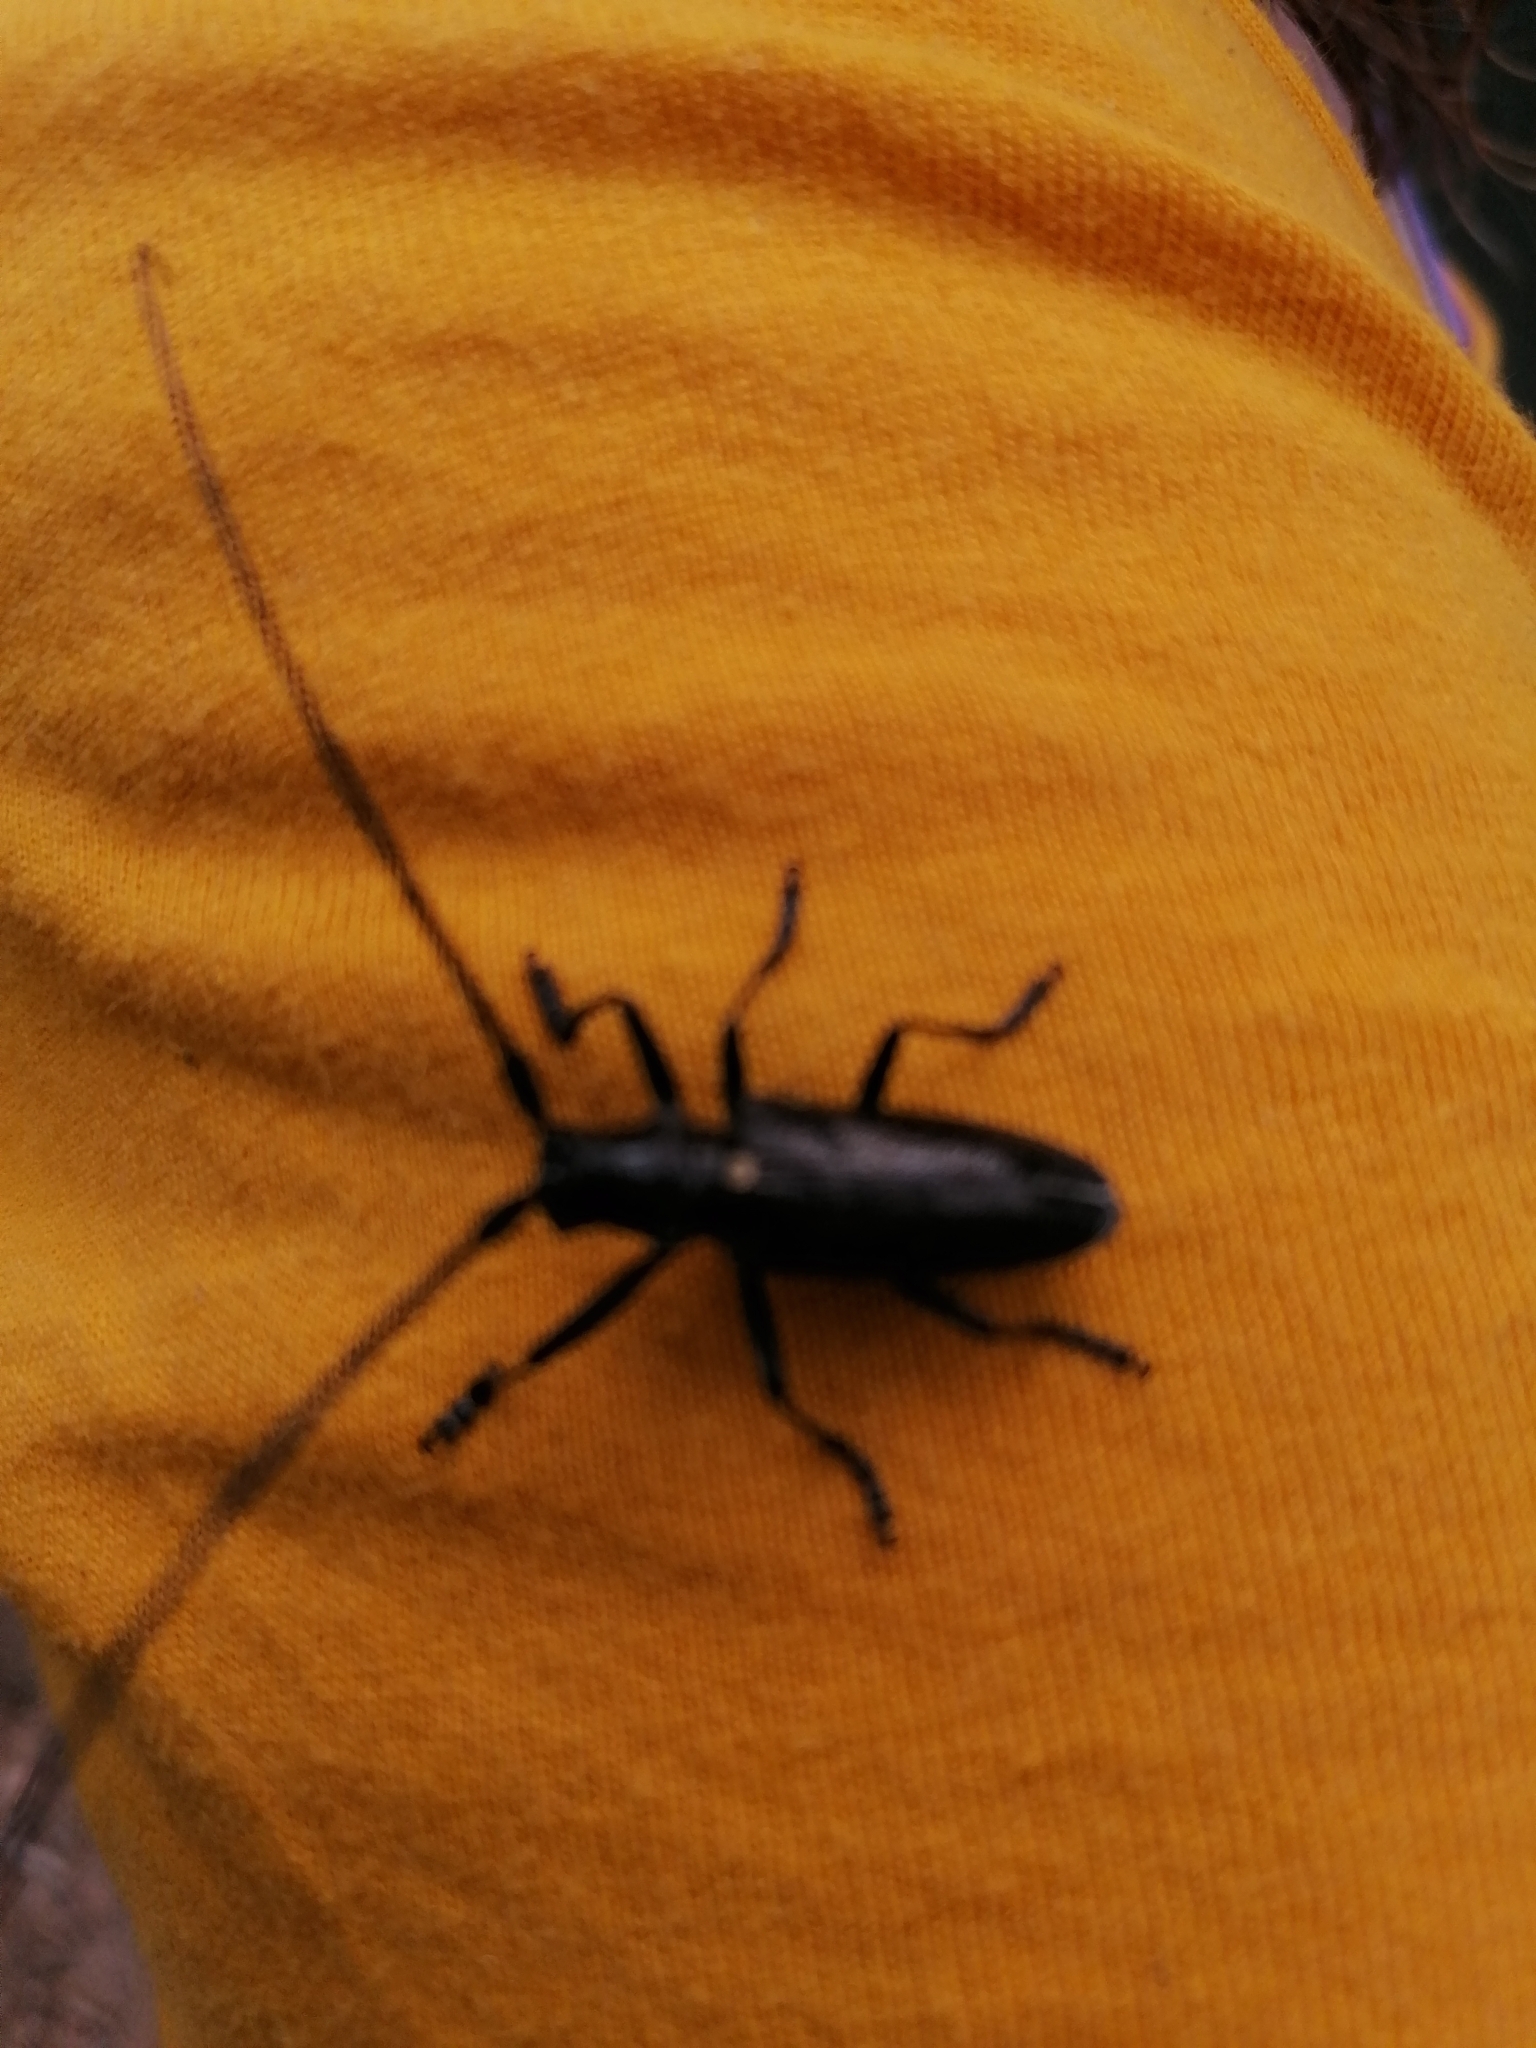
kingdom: Animalia
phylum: Arthropoda
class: Insecta
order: Coleoptera
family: Cerambycidae
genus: Monochamus
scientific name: Monochamus scutellatus
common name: White-spotted sawyer beetle
